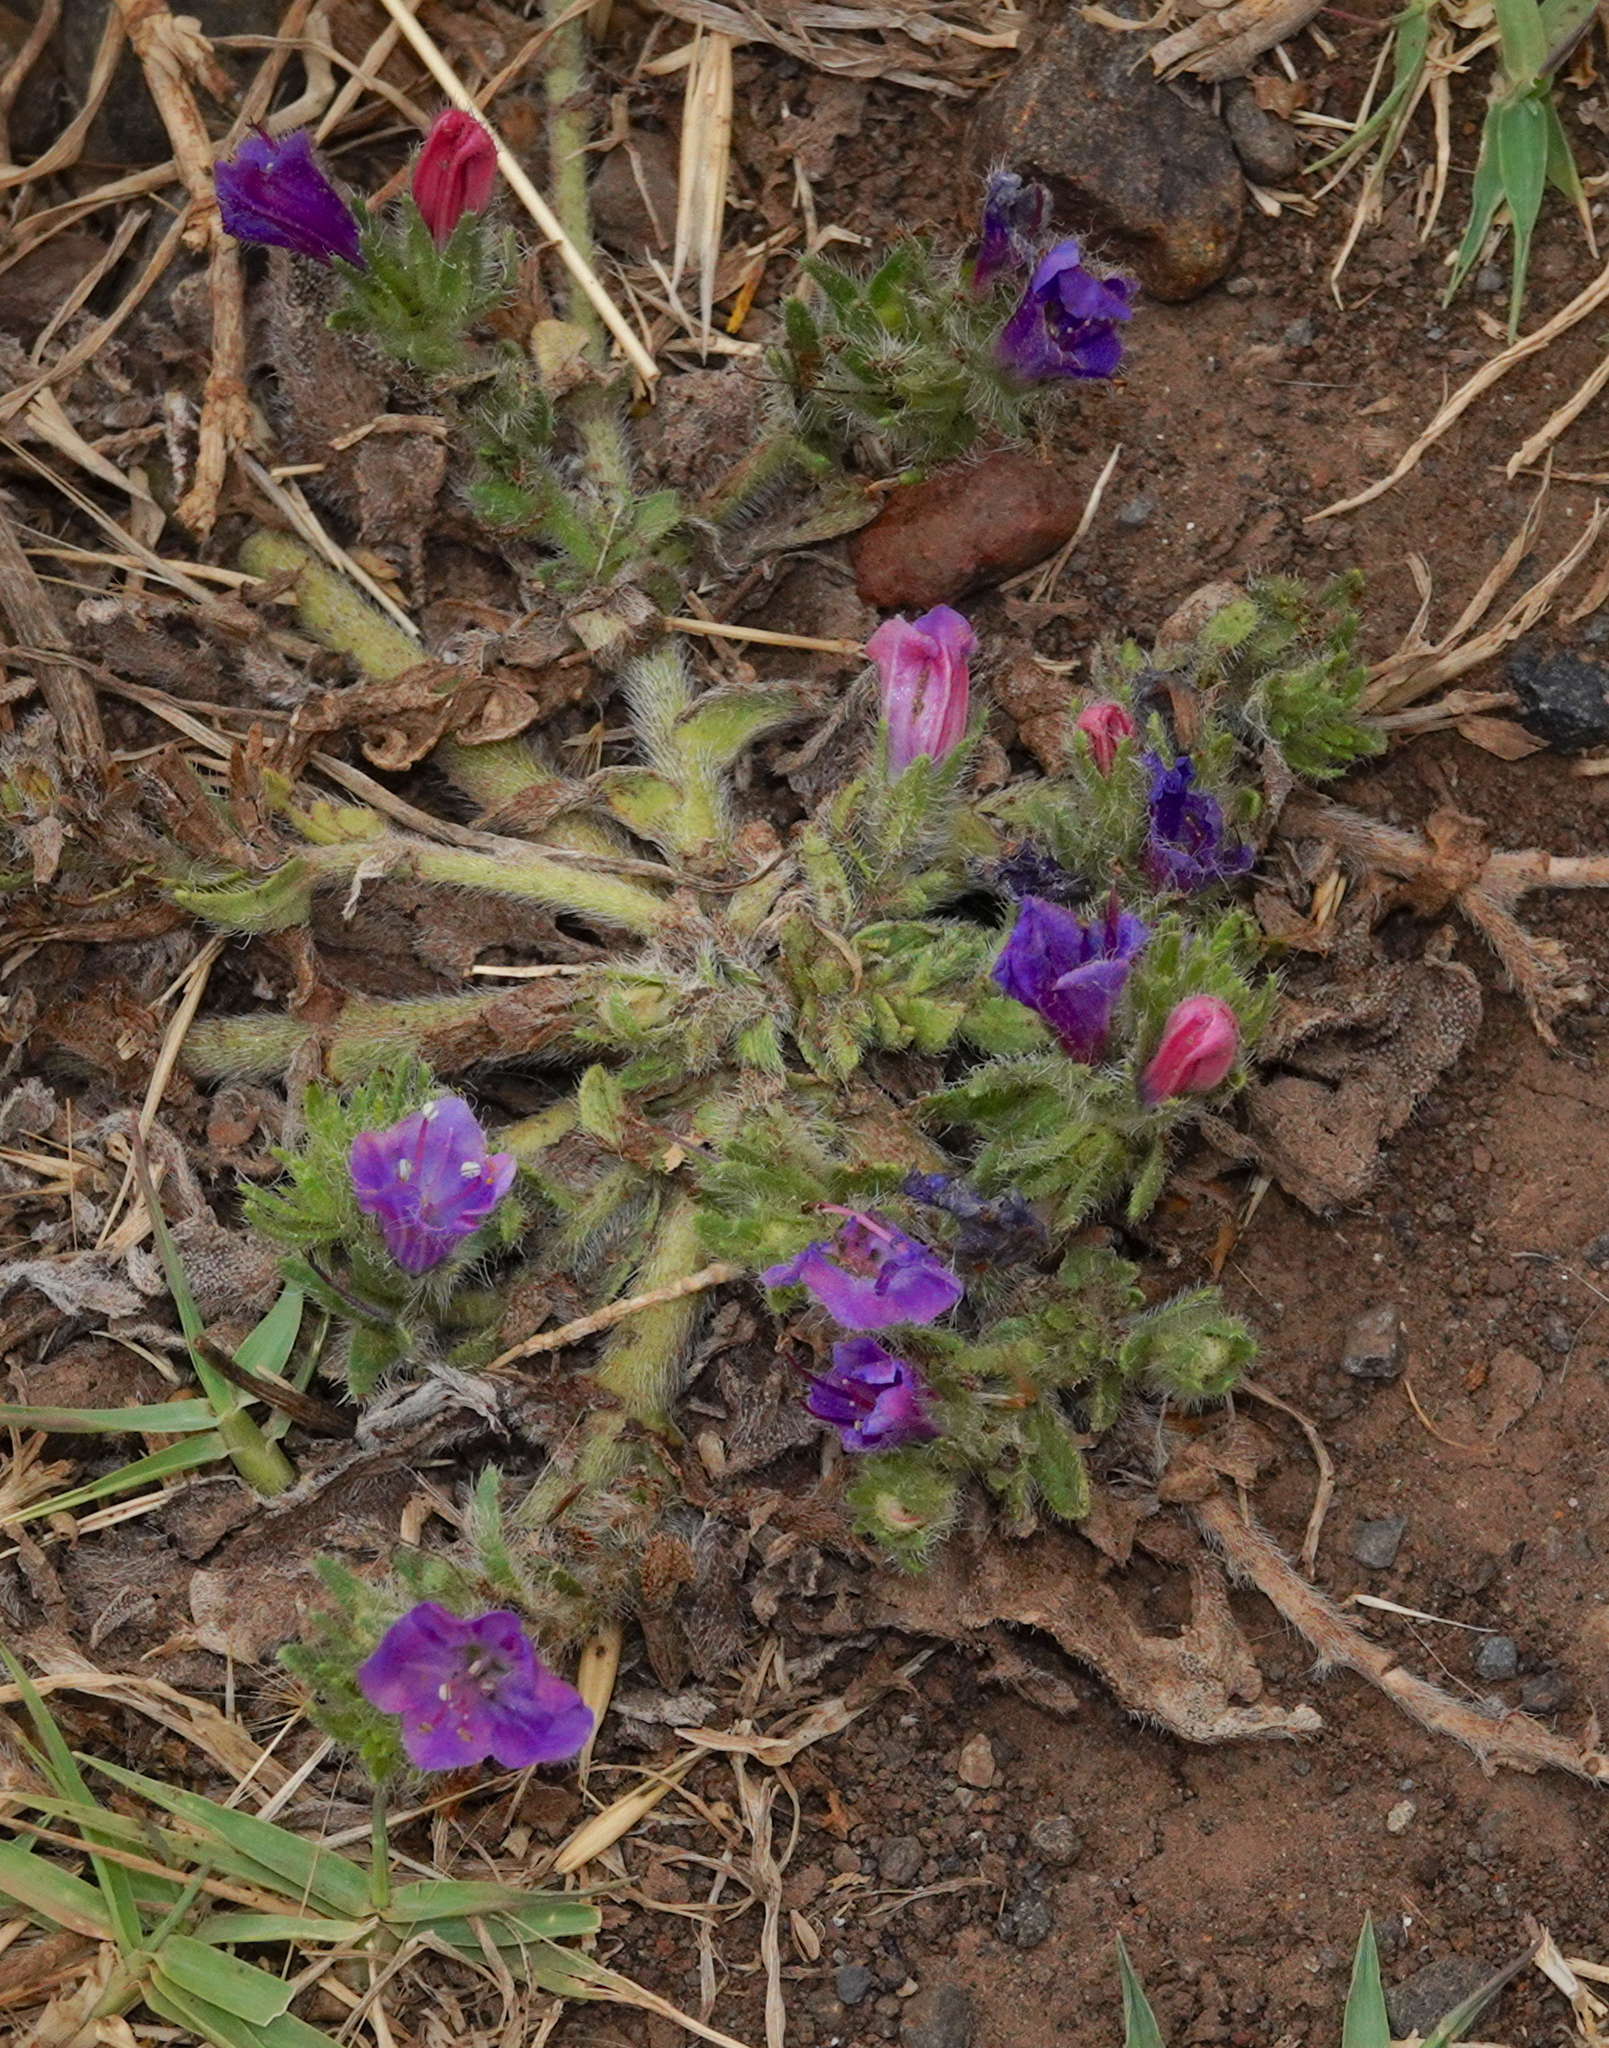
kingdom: Plantae
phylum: Tracheophyta
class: Magnoliopsida
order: Boraginales
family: Boraginaceae
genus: Echium
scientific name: Echium plantagineum
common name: Purple viper's-bugloss
